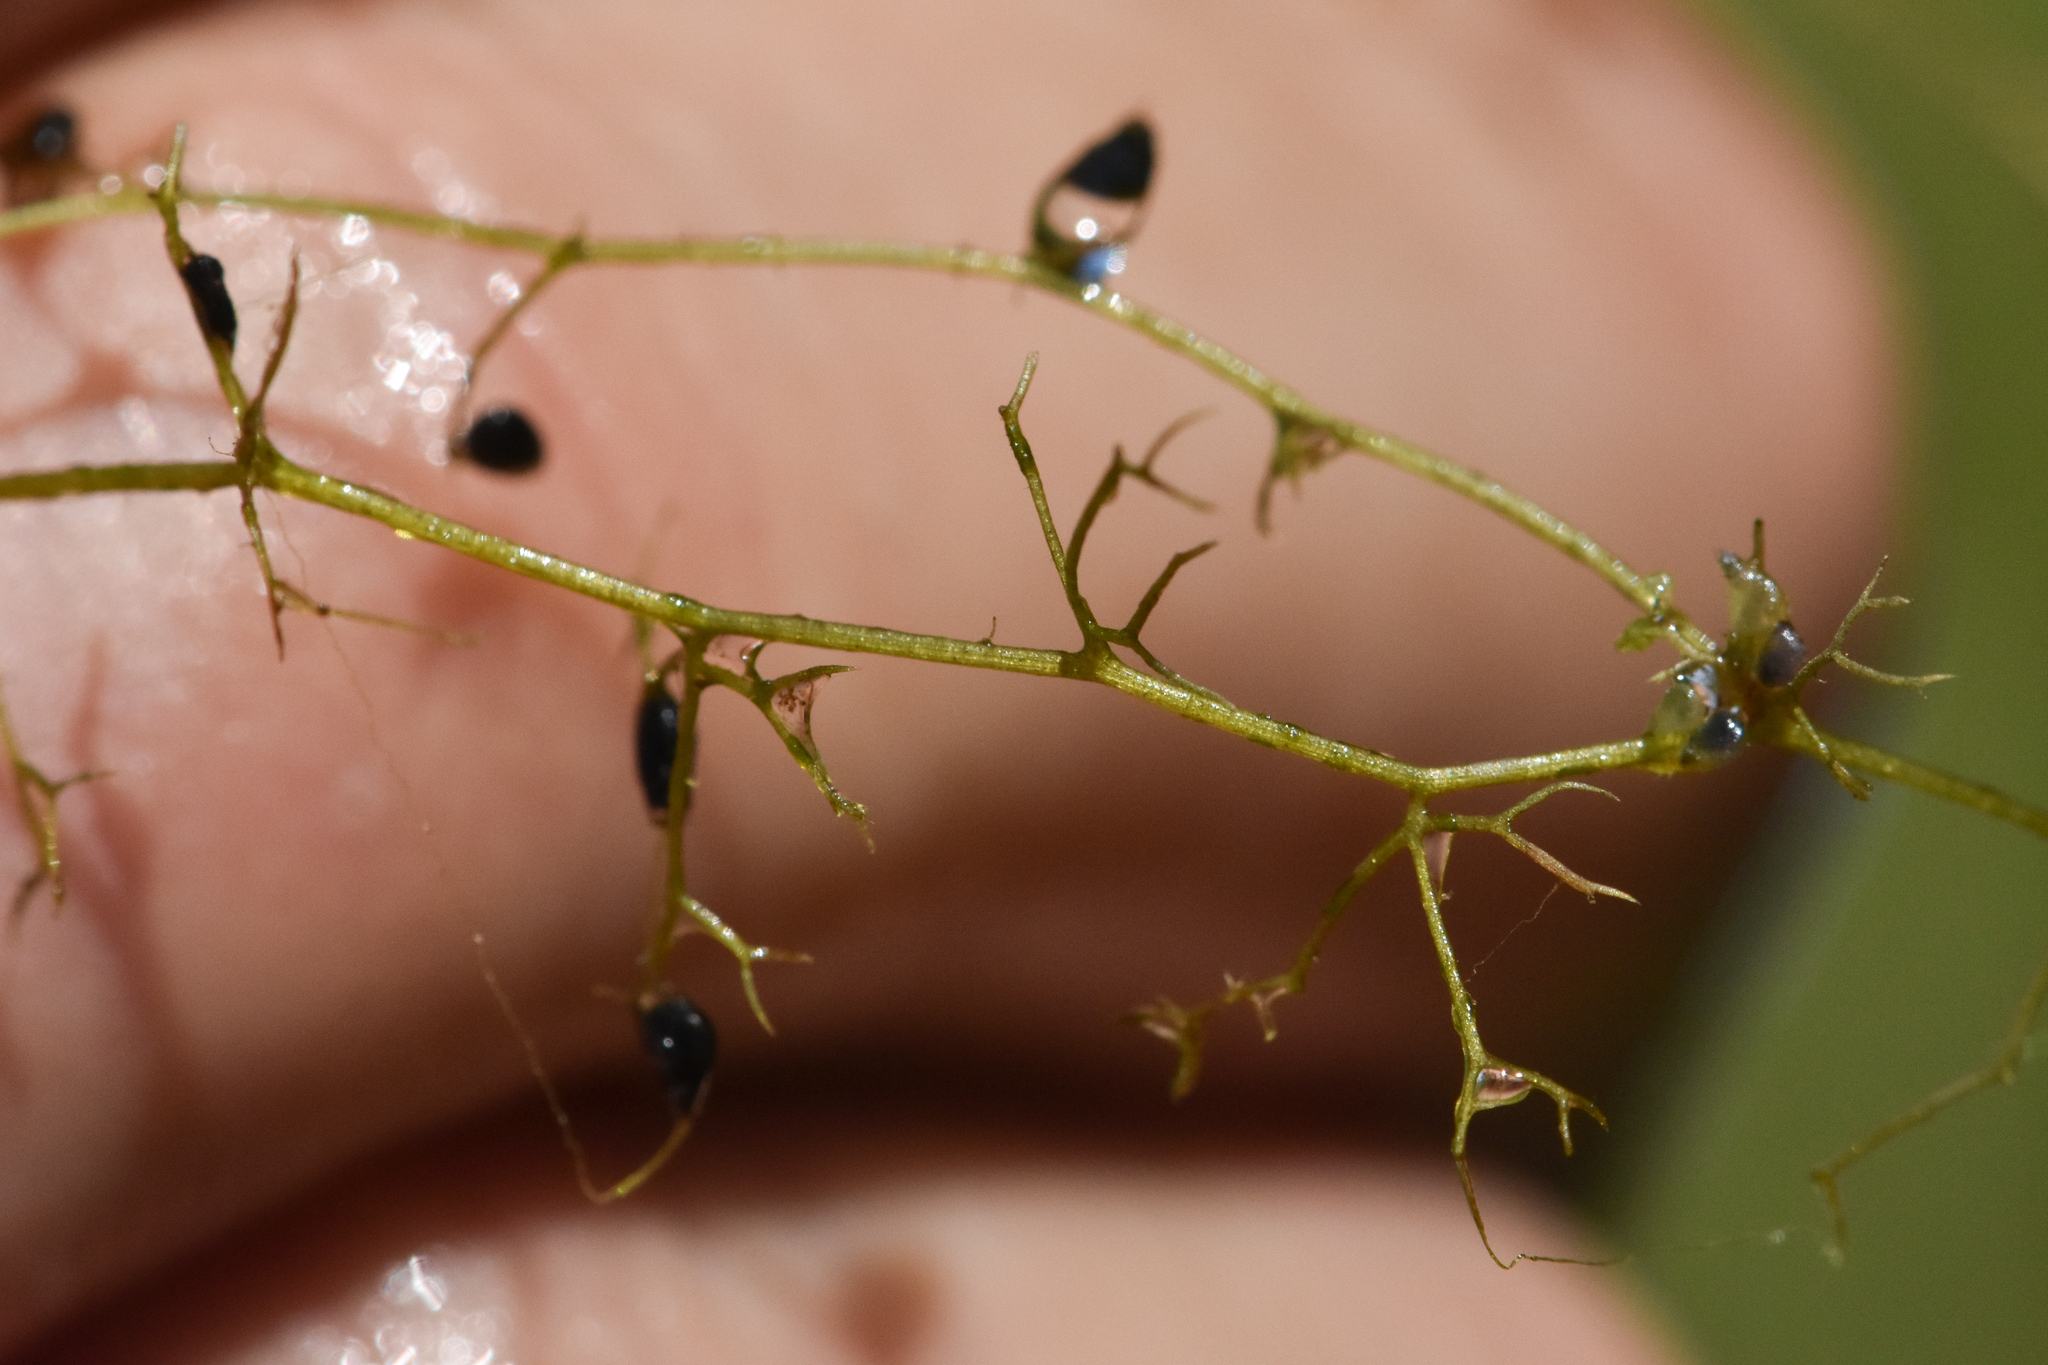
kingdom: Plantae
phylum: Tracheophyta
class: Magnoliopsida
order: Lamiales
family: Lentibulariaceae
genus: Utricularia
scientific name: Utricularia minor
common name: Lesser bladderwort
